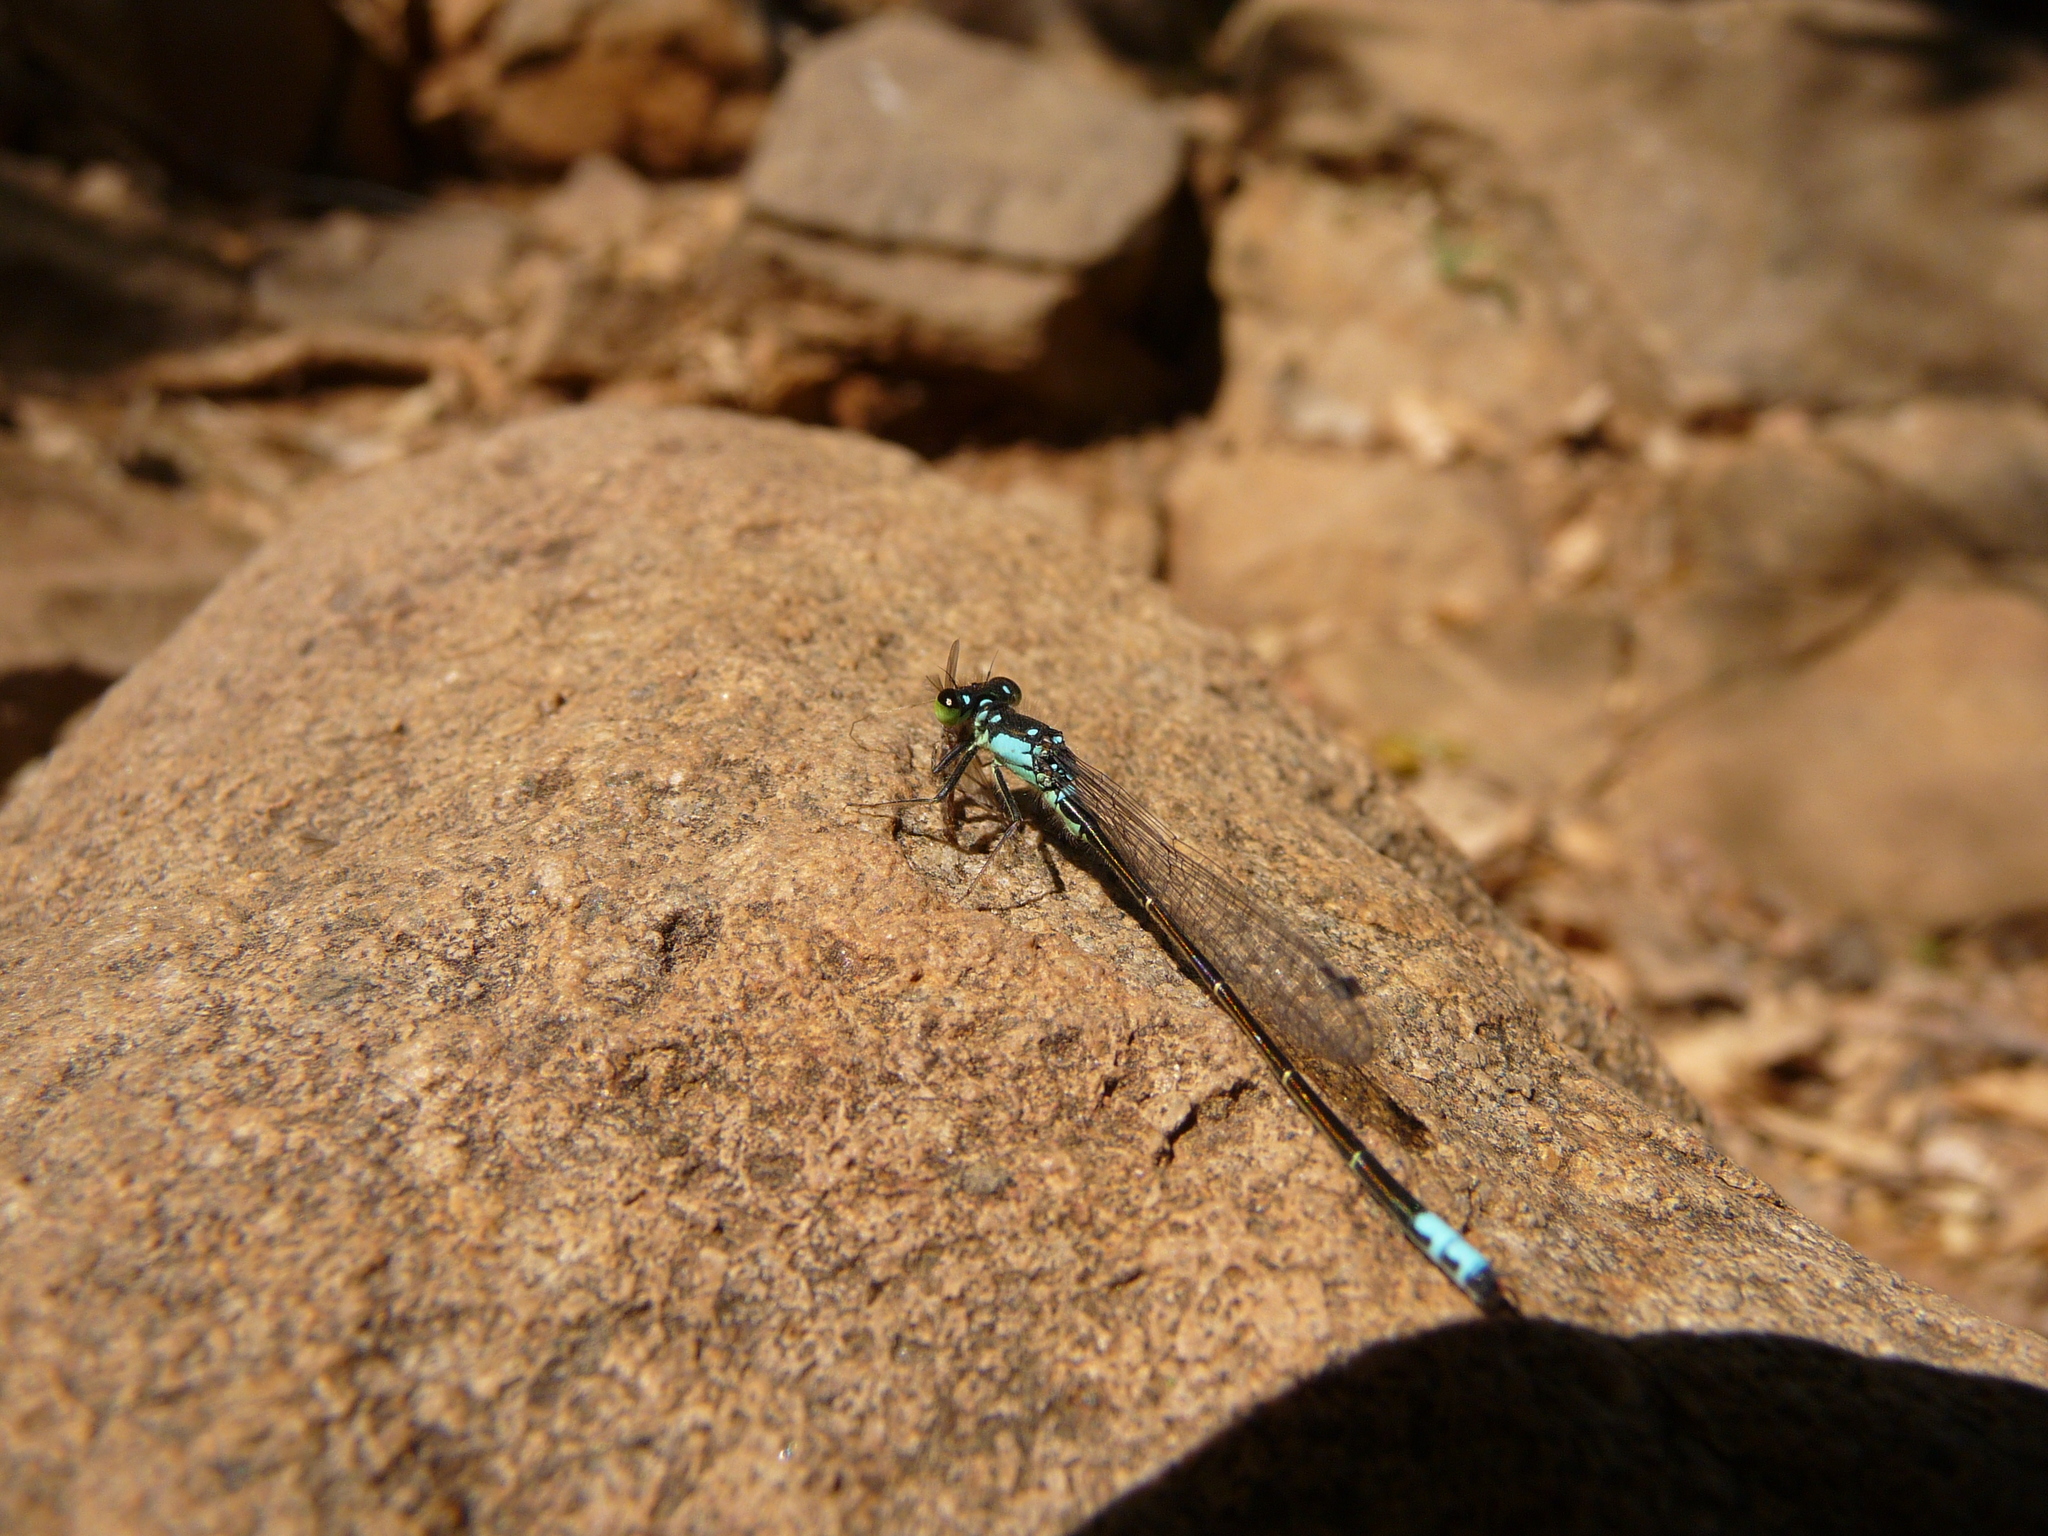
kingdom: Animalia
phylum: Arthropoda
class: Insecta
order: Odonata
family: Coenagrionidae
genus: Ischnura
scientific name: Ischnura cervula
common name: Pacific forktail
